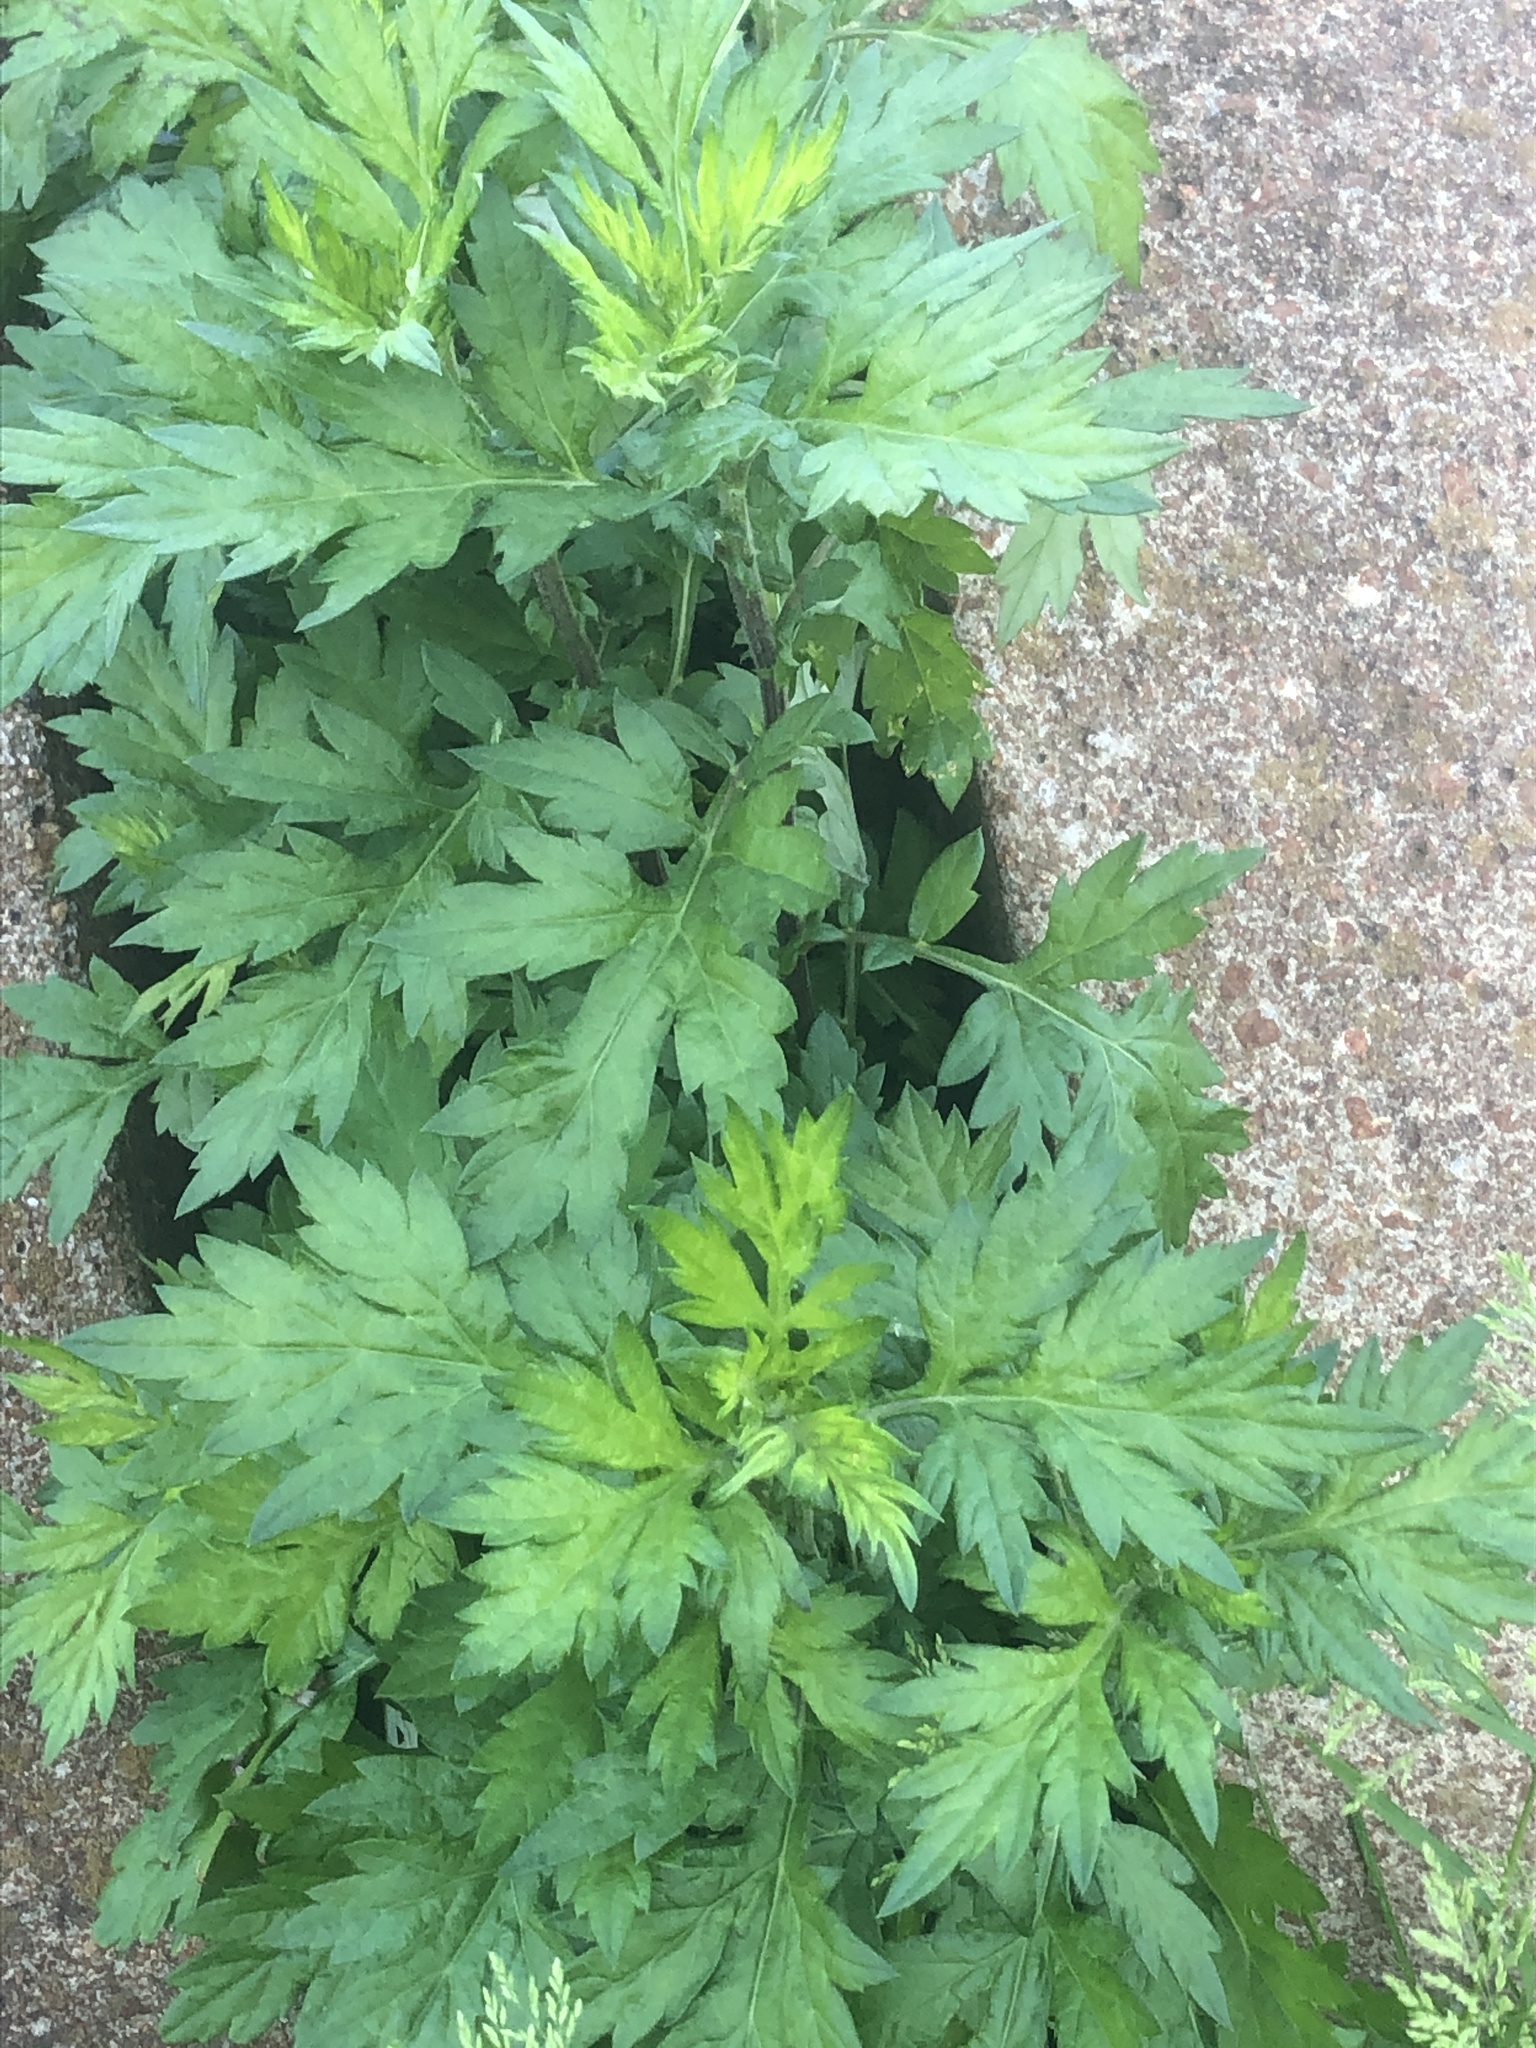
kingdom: Plantae
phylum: Tracheophyta
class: Magnoliopsida
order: Asterales
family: Asteraceae
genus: Artemisia
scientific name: Artemisia vulgaris
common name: Mugwort
